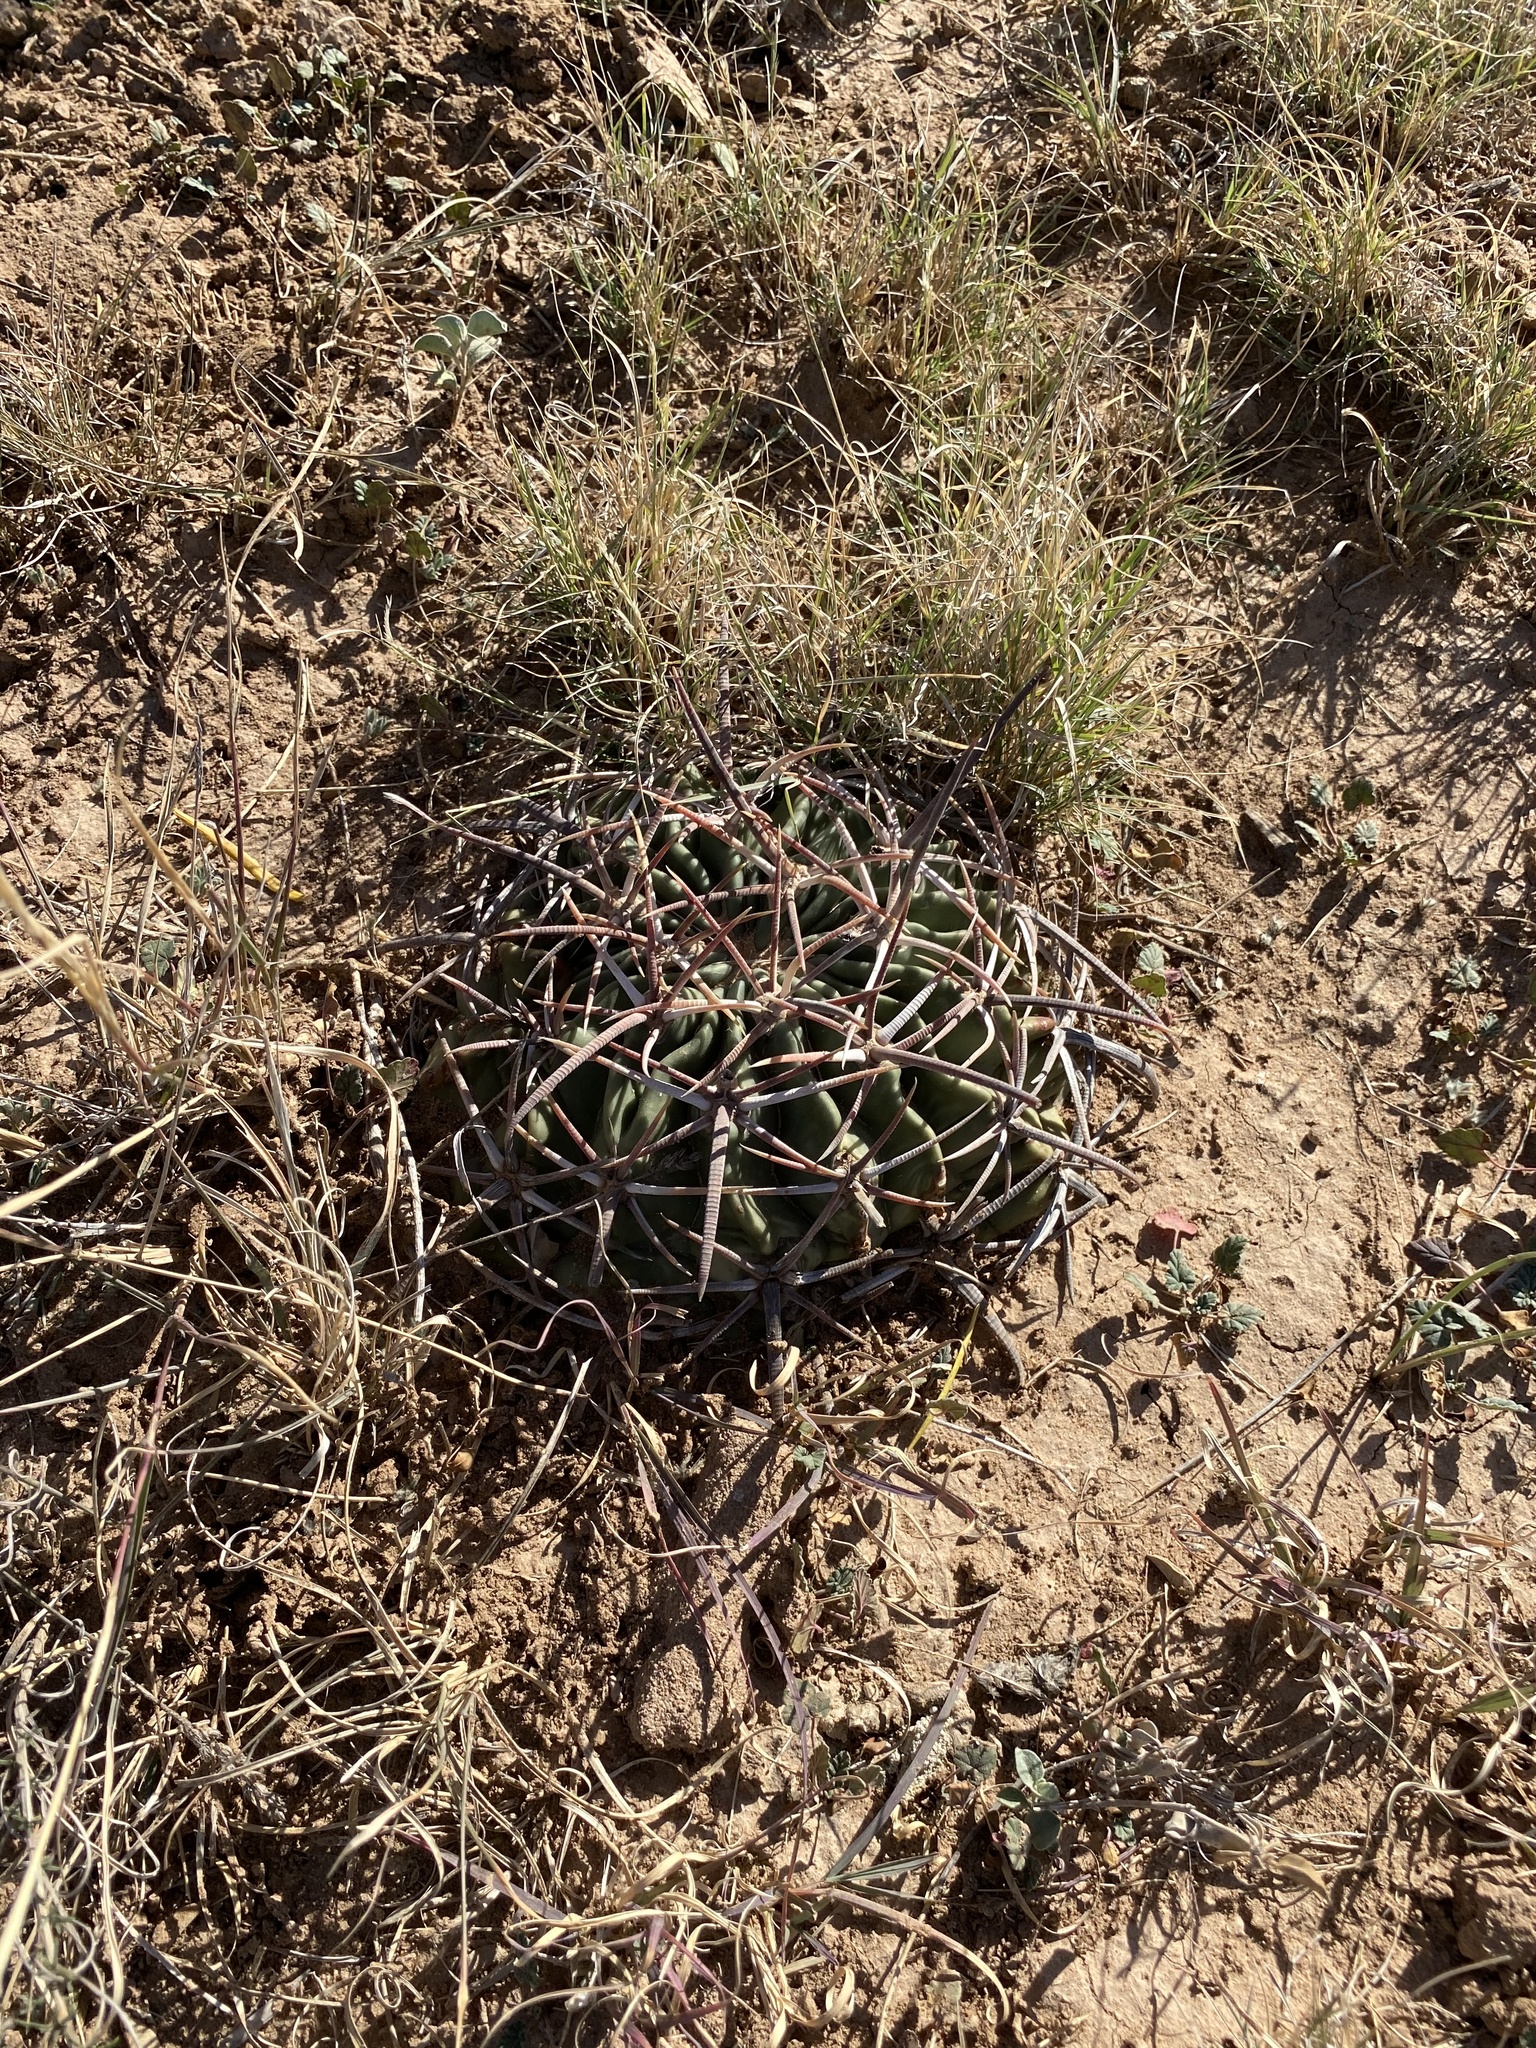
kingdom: Plantae
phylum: Tracheophyta
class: Magnoliopsida
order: Caryophyllales
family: Cactaceae
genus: Echinocactus
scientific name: Echinocactus texensis
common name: Devil's pincushion
